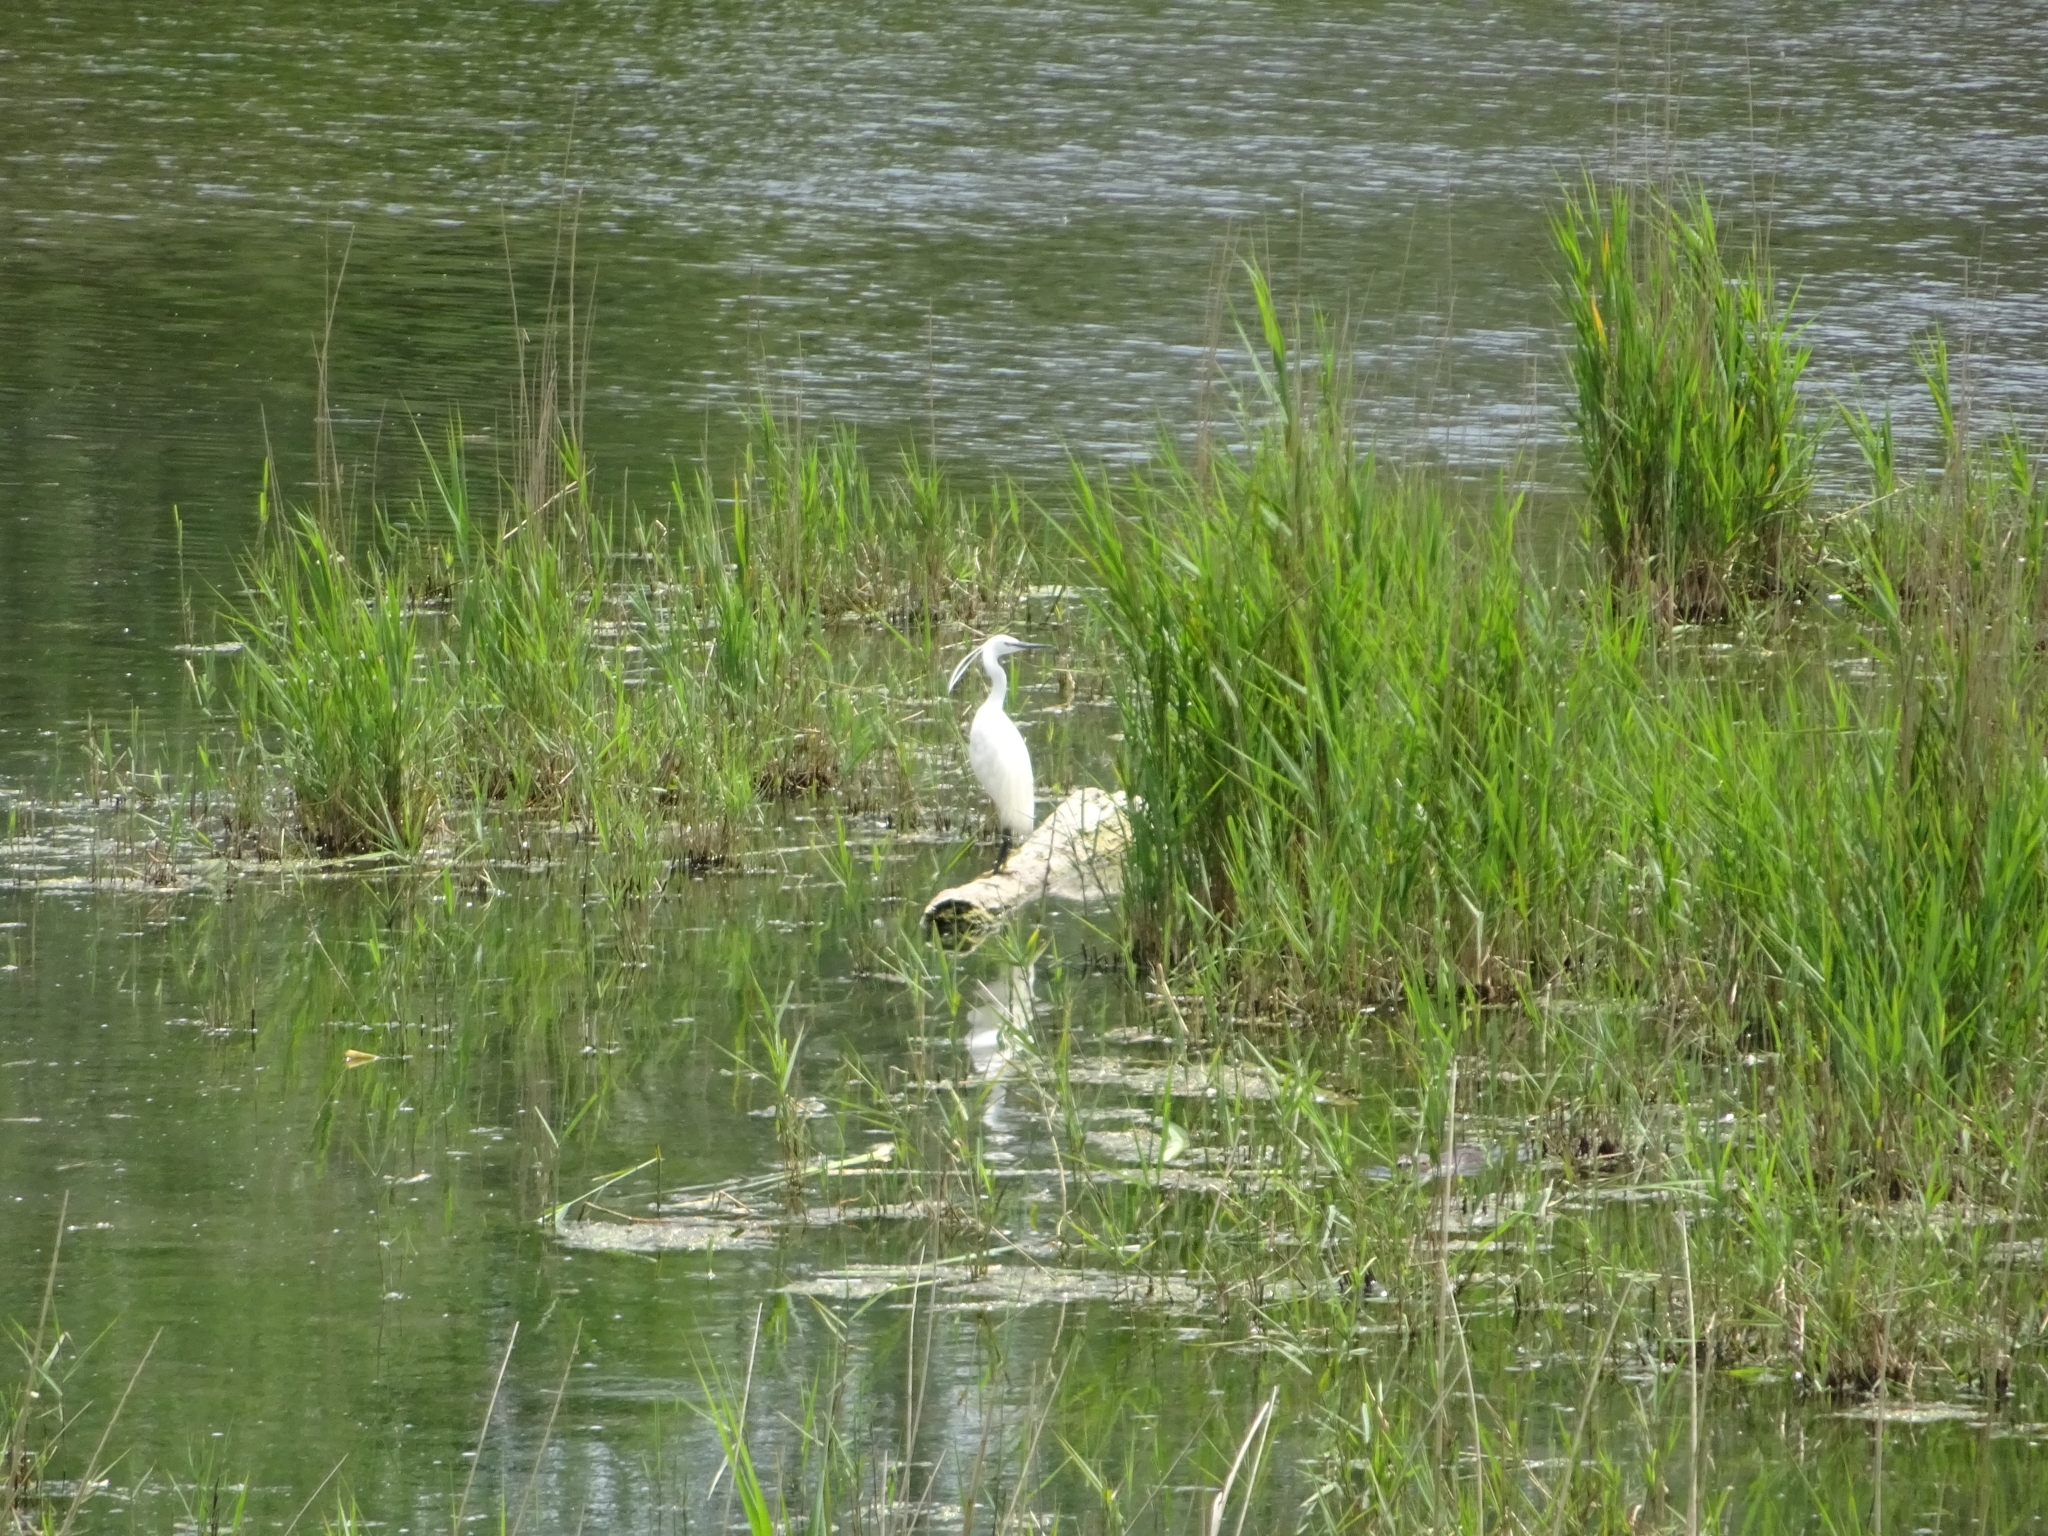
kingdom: Animalia
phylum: Chordata
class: Aves
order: Pelecaniformes
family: Ardeidae
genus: Egretta
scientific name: Egretta garzetta
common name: Little egret
